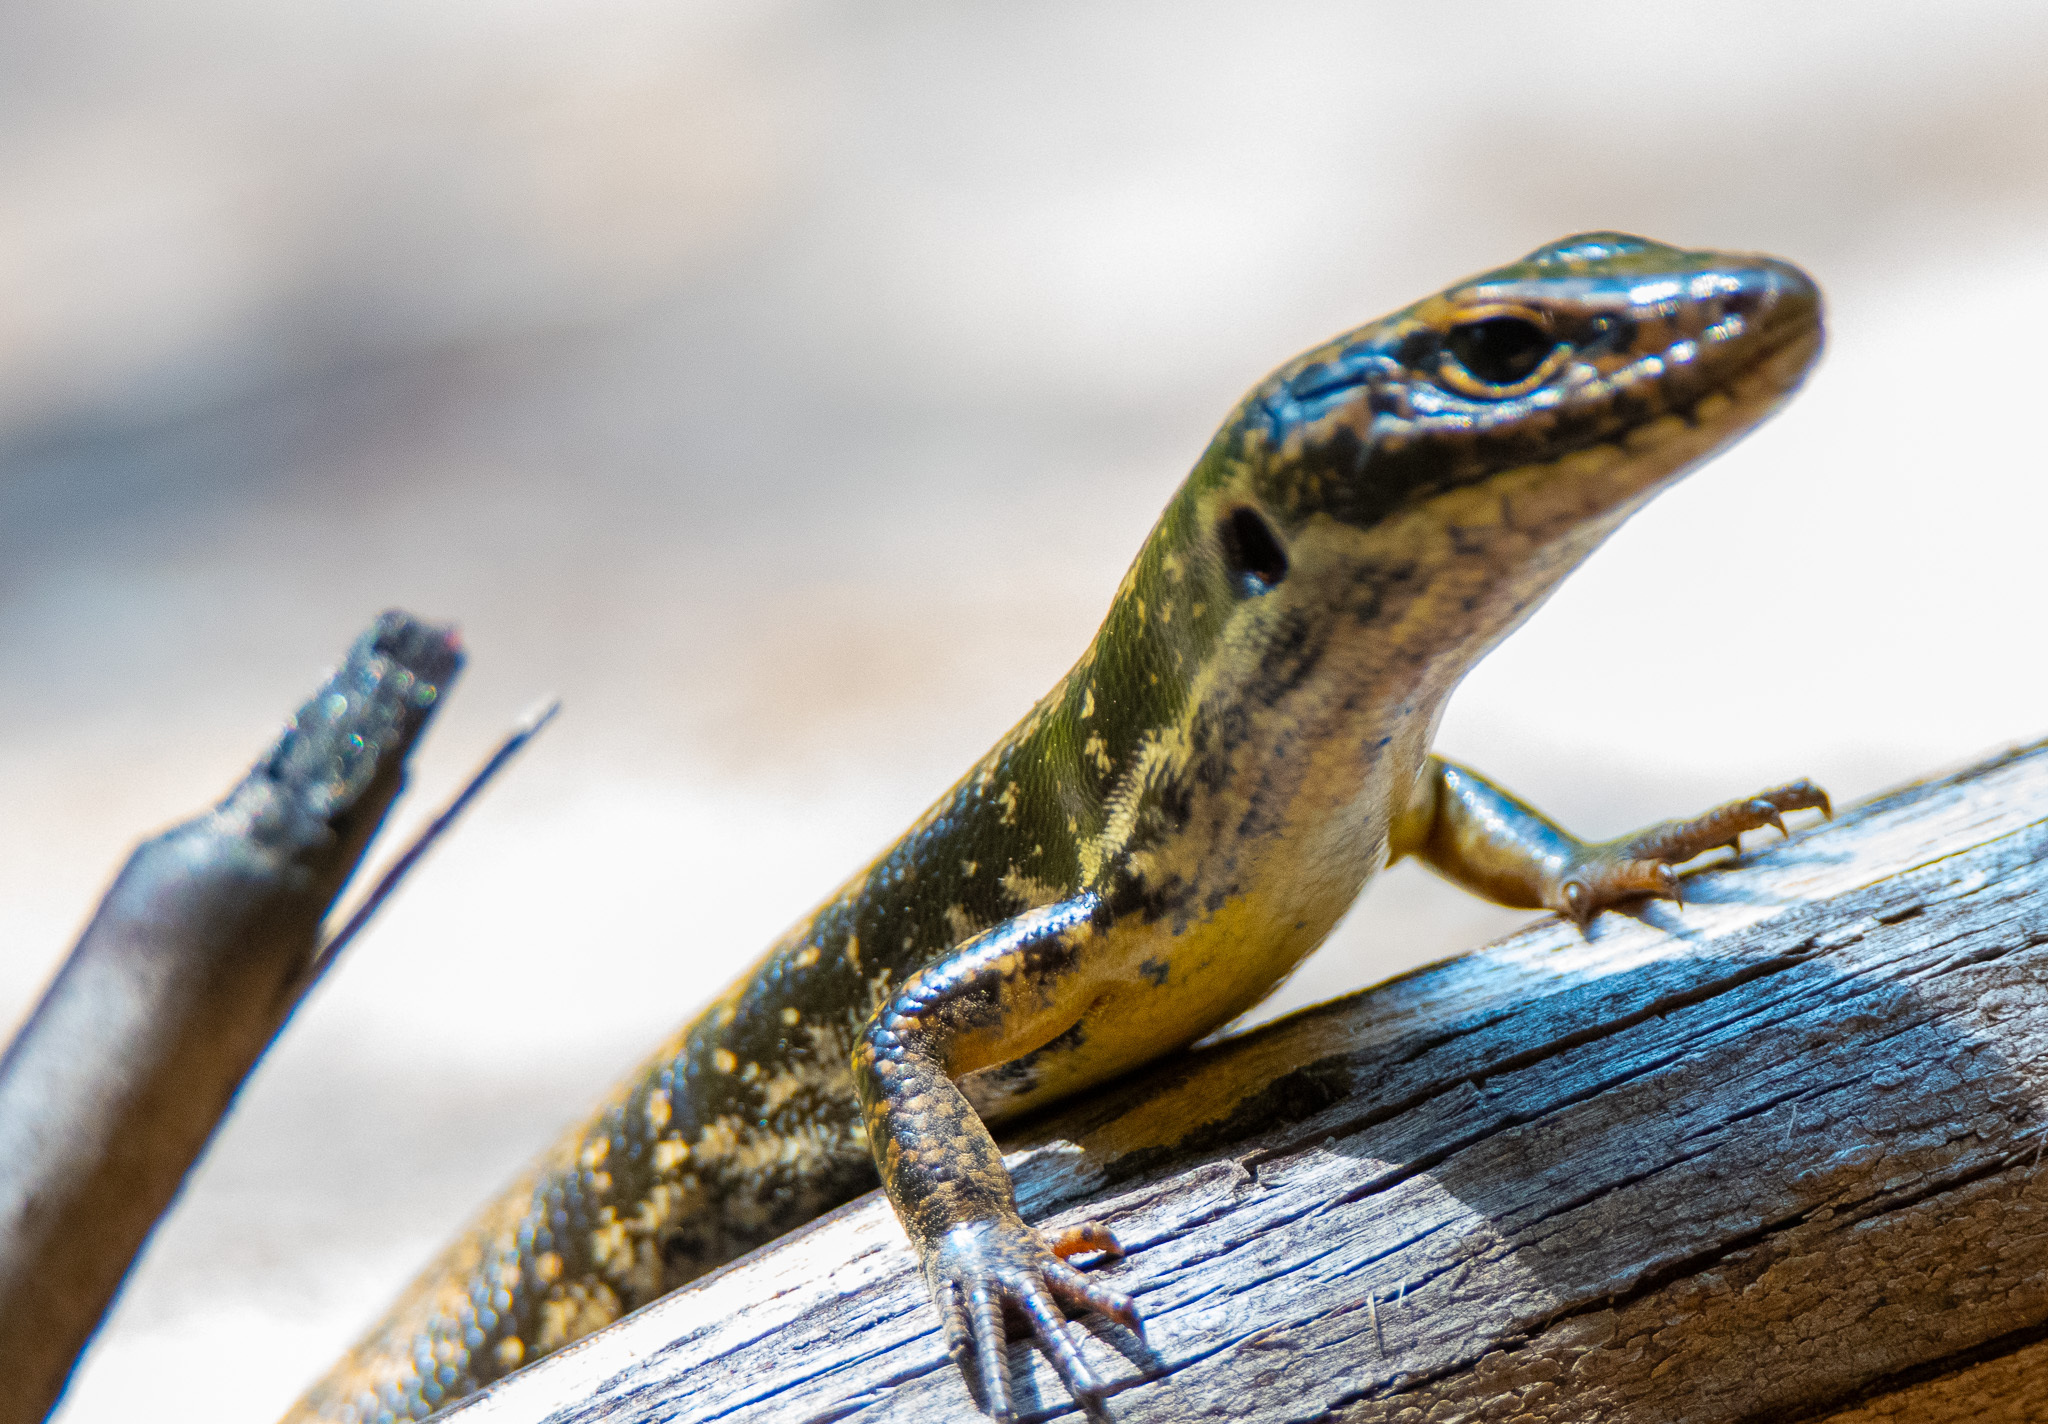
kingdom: Animalia
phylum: Chordata
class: Squamata
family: Scincidae
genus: Eulamprus
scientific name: Eulamprus heatwolei
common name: Warm-temperate water-skink
